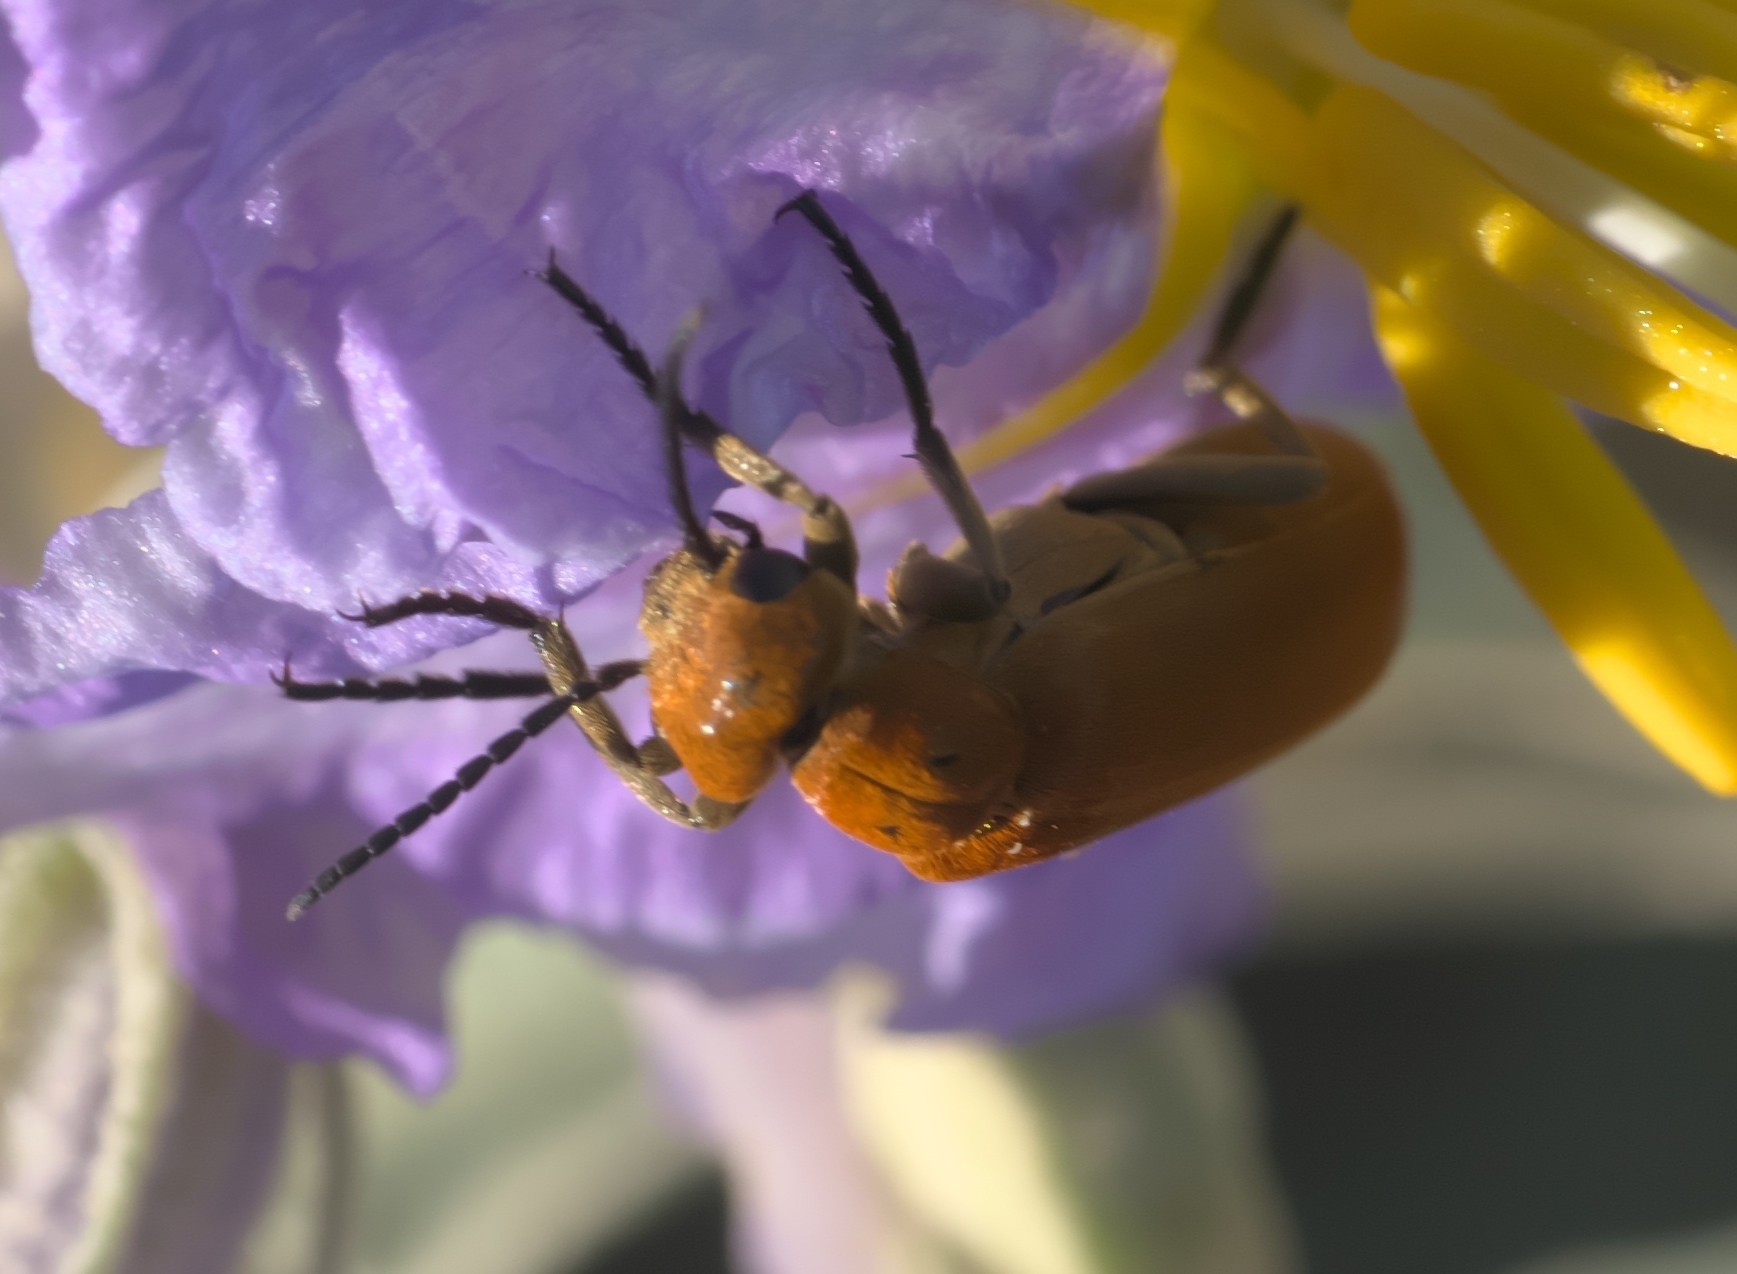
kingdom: Animalia
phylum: Arthropoda
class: Insecta
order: Coleoptera
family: Meloidae
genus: Epicauta
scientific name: Epicauta callosa
